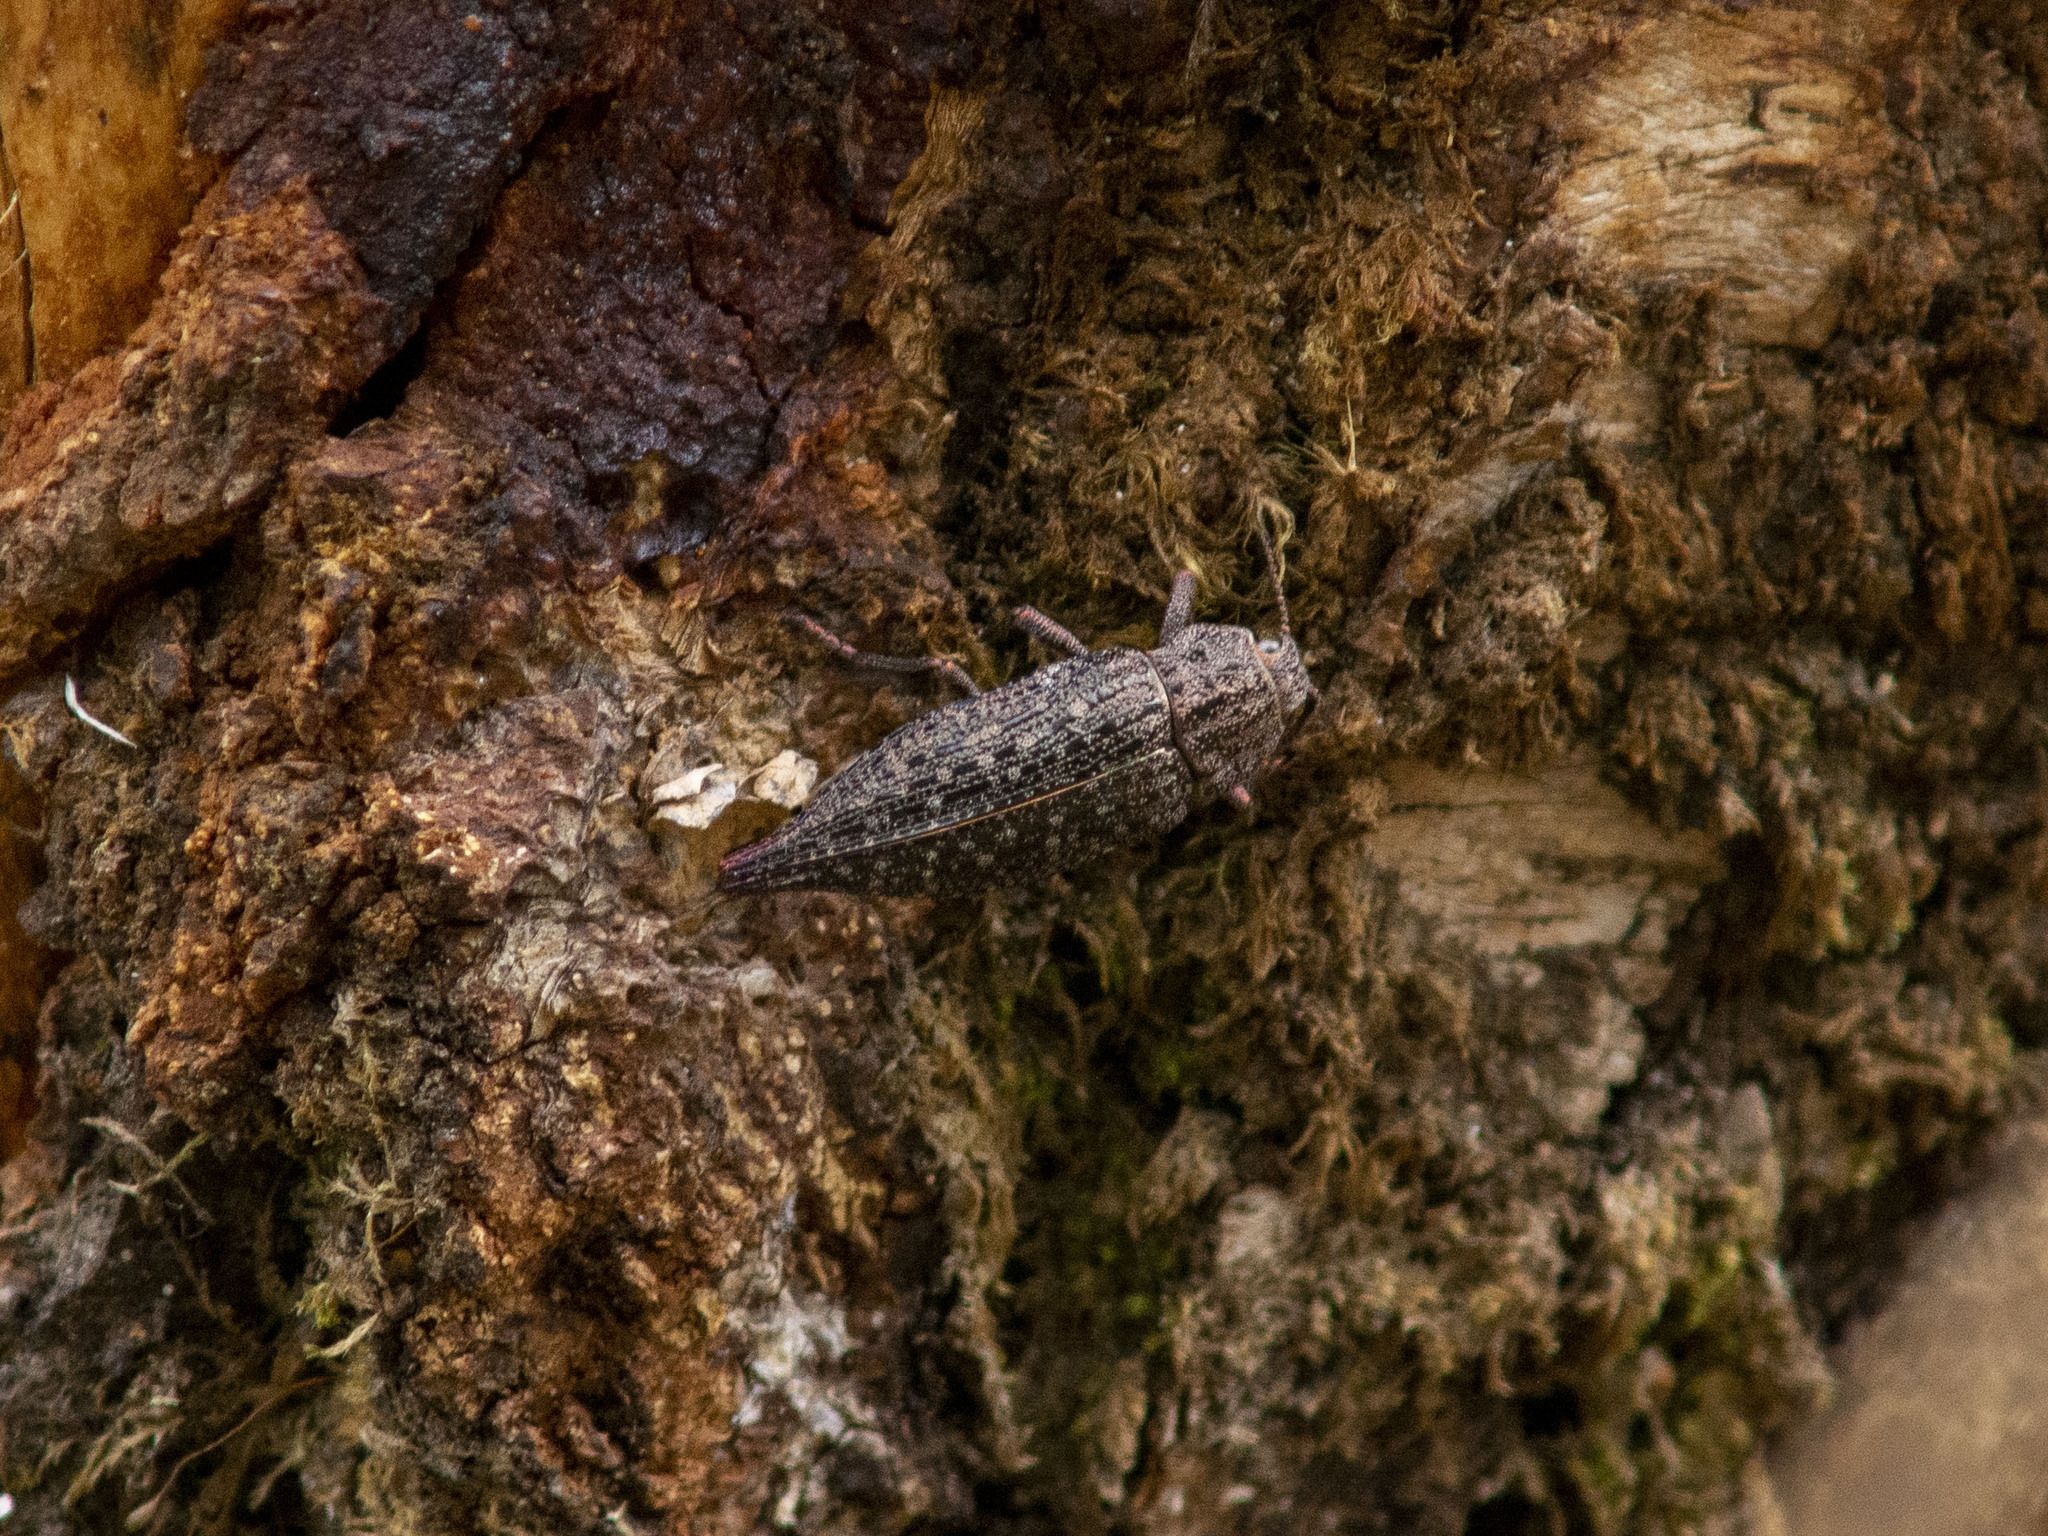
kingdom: Animalia
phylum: Arthropoda
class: Insecta
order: Coleoptera
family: Buprestidae
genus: Dicerca
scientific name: Dicerca furcata
